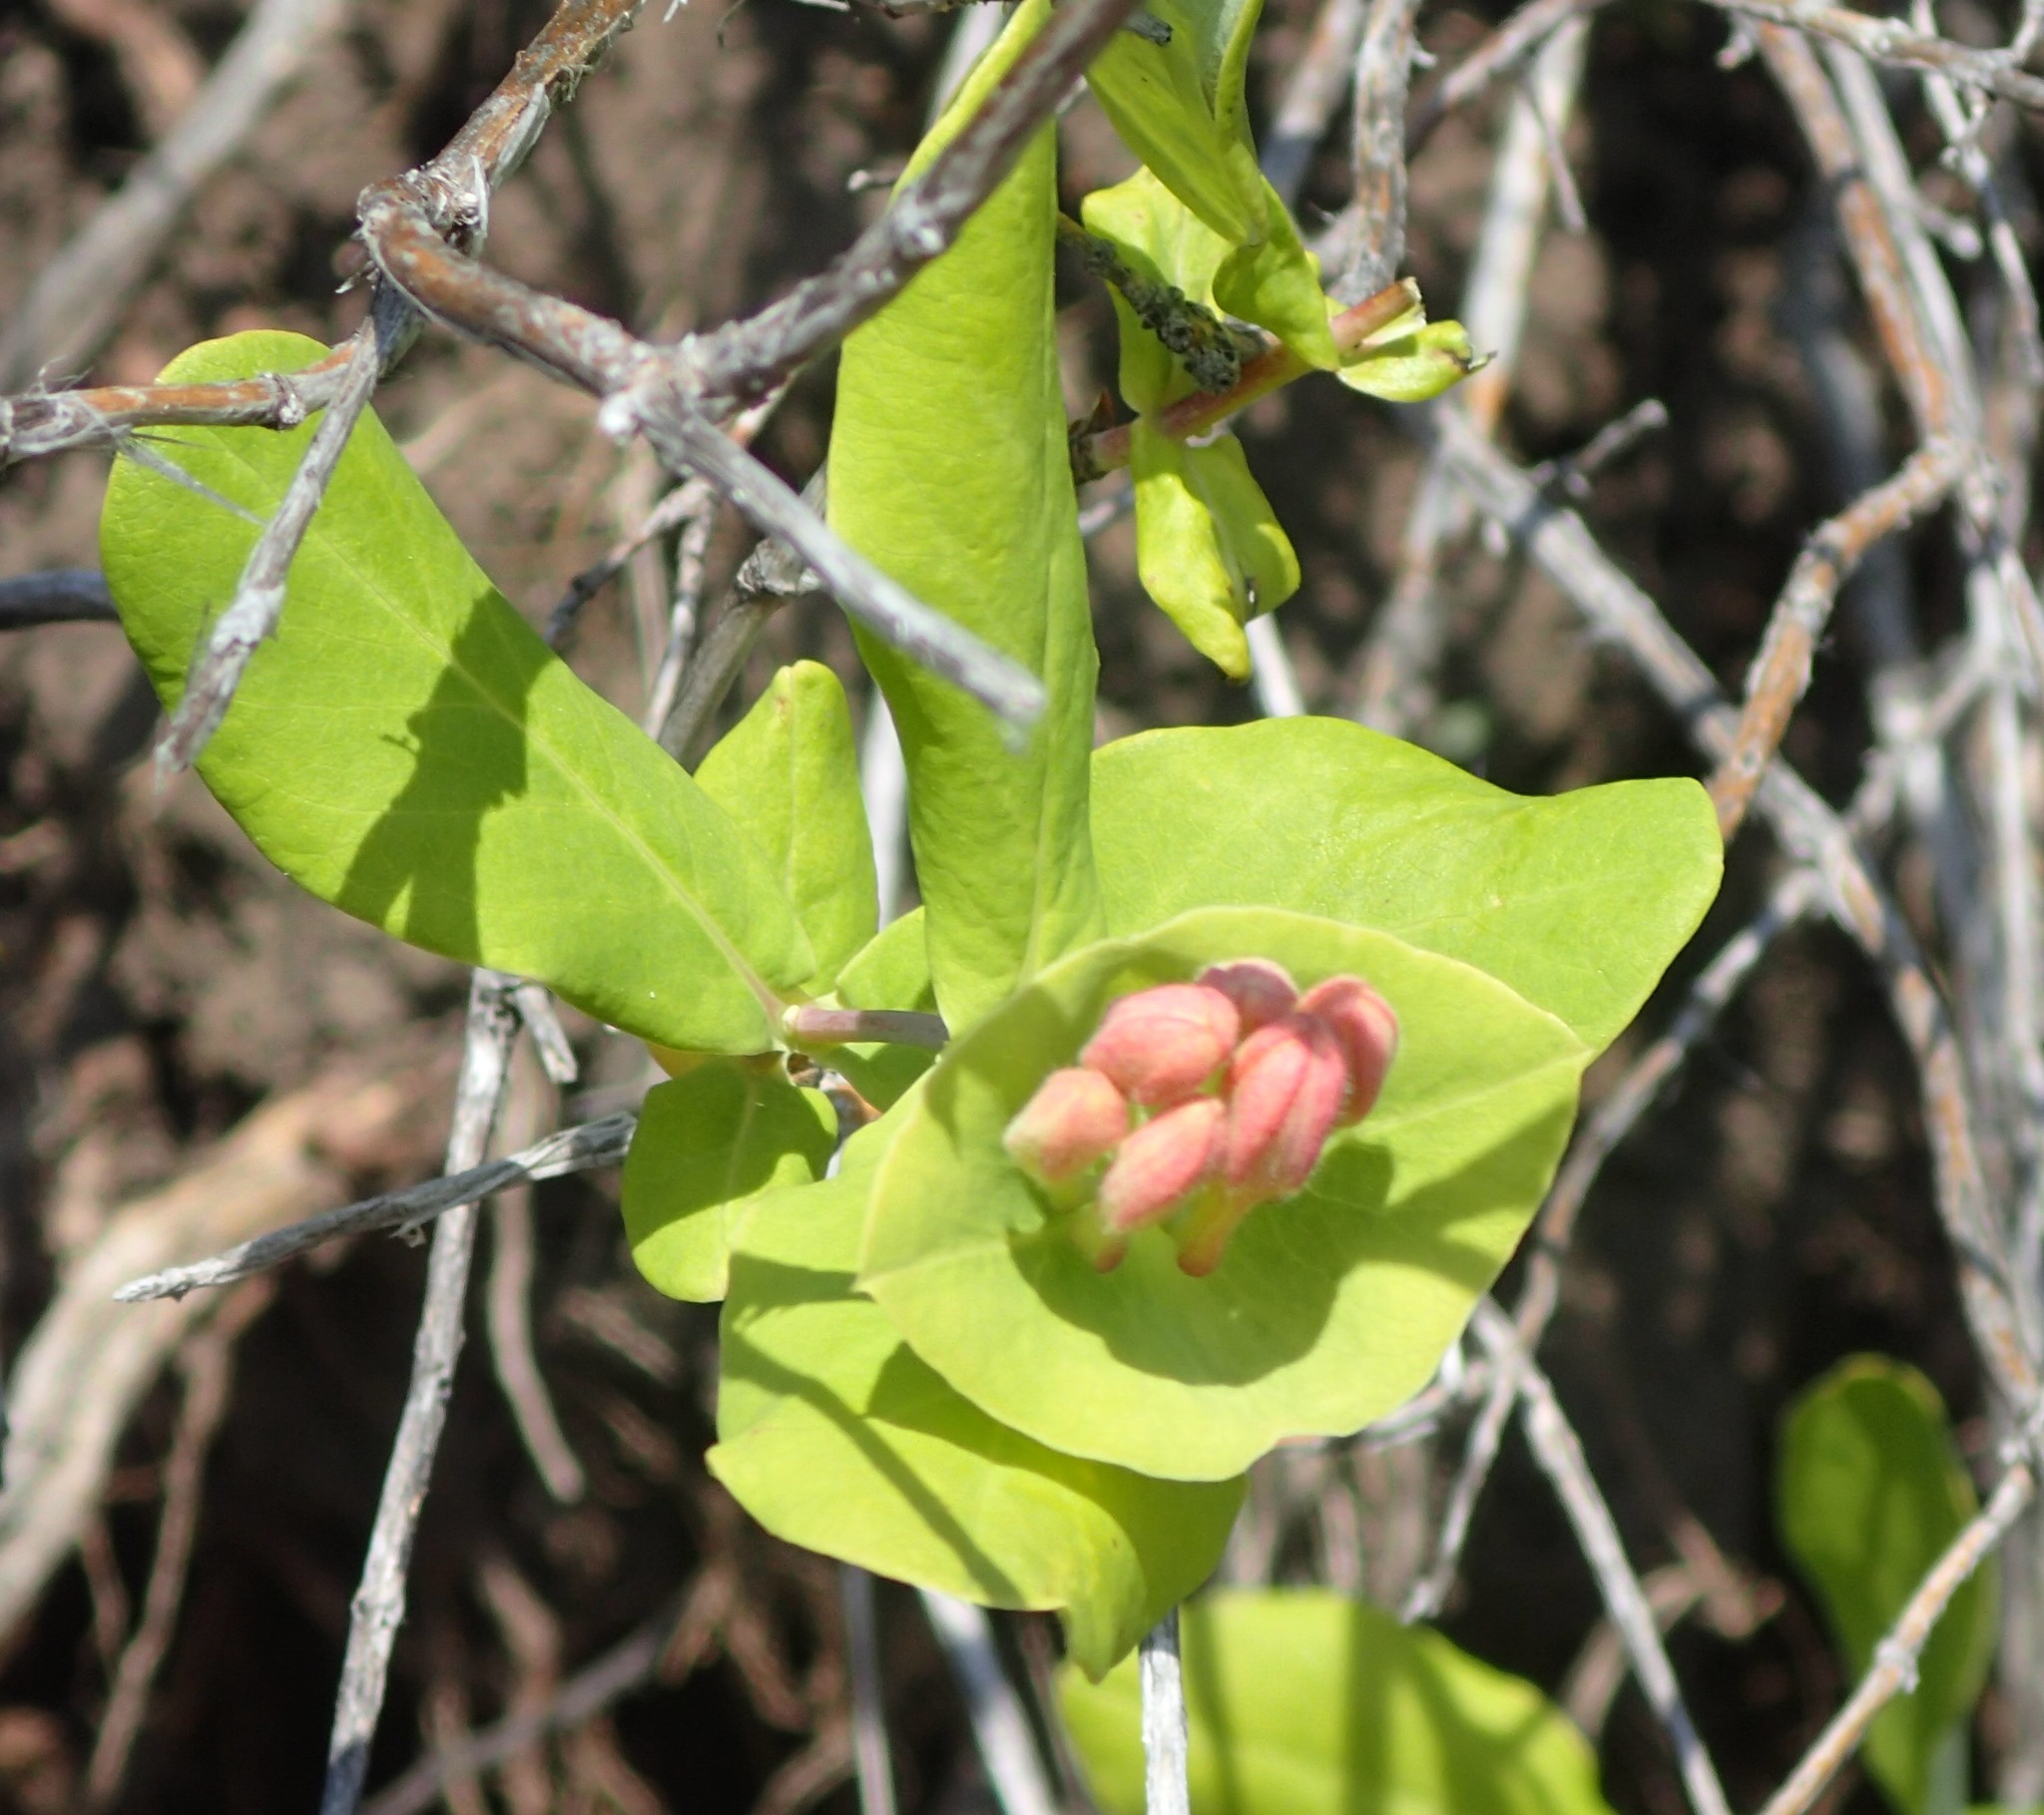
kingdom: Plantae
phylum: Tracheophyta
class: Magnoliopsida
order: Dipsacales
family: Caprifoliaceae
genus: Lonicera
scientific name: Lonicera dioica
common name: Limber honeysuckle
